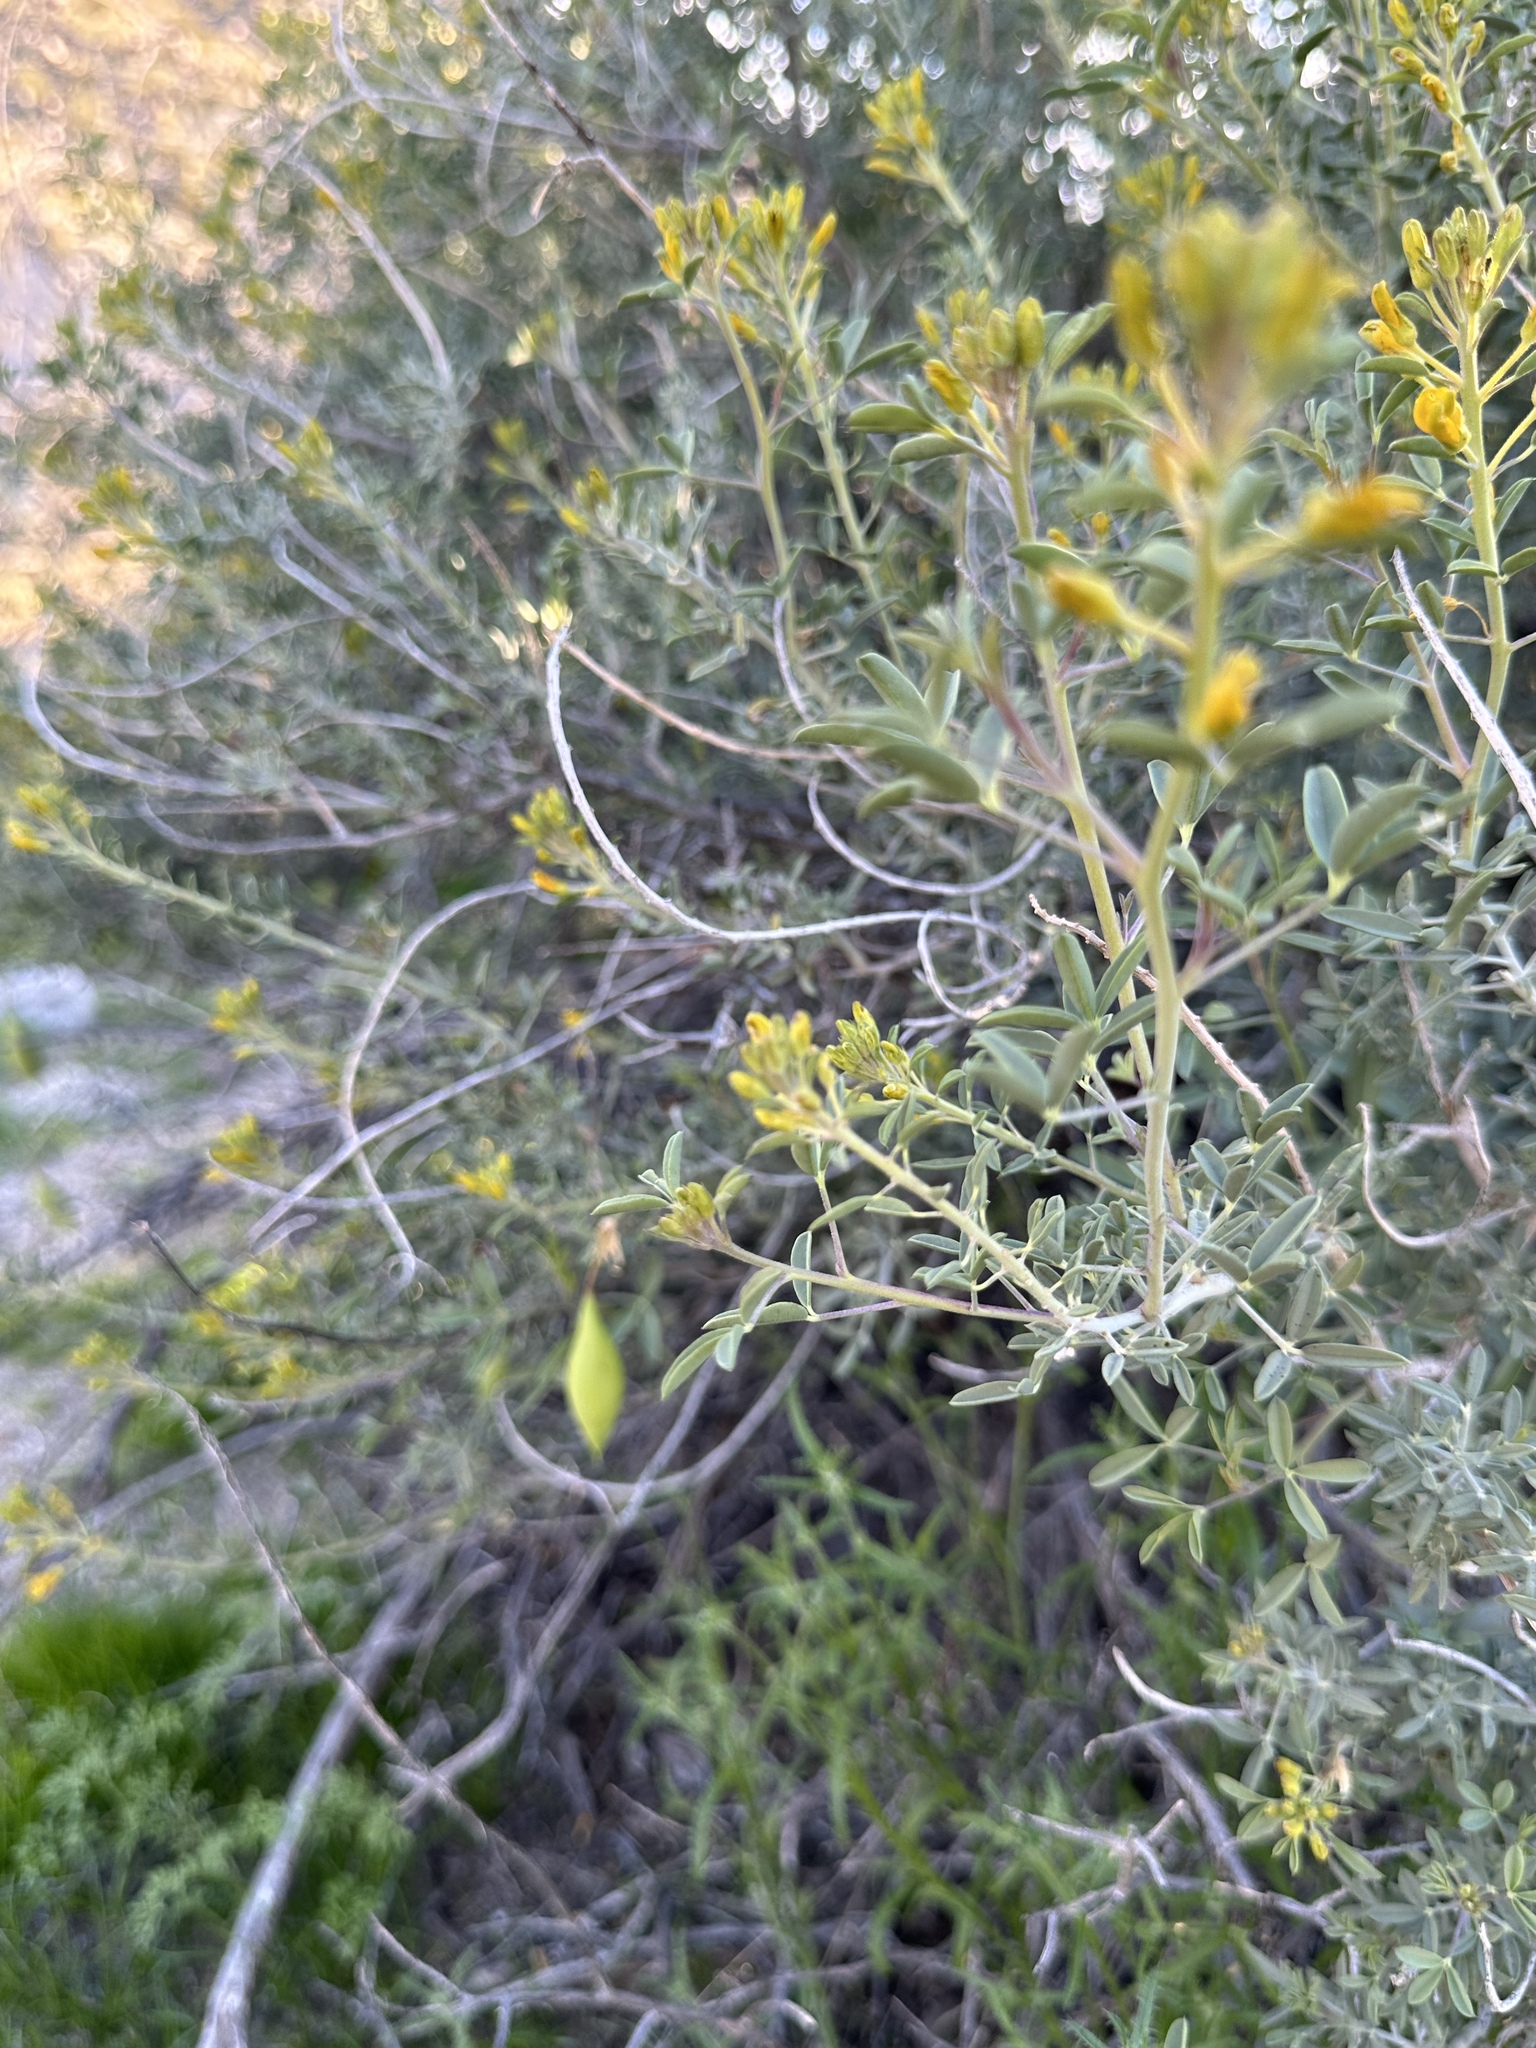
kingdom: Plantae
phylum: Tracheophyta
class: Magnoliopsida
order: Brassicales
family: Cleomaceae
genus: Cleomella
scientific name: Cleomella arborea
